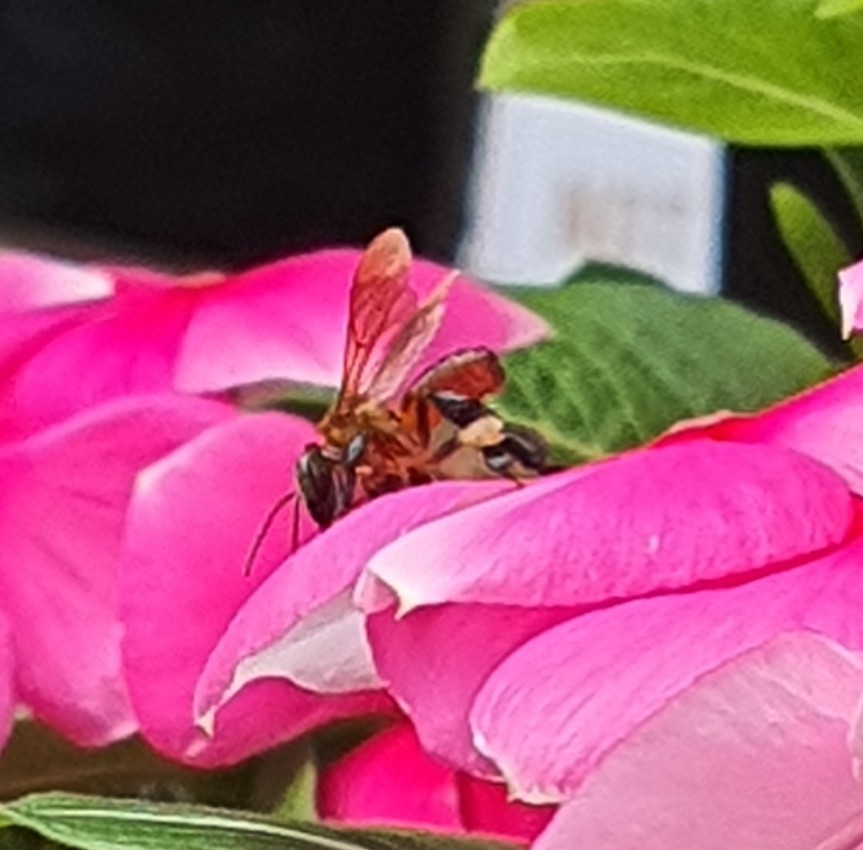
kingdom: Animalia
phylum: Arthropoda
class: Insecta
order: Hymenoptera
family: Apidae
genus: Geniotrigona
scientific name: Geniotrigona thoracica
